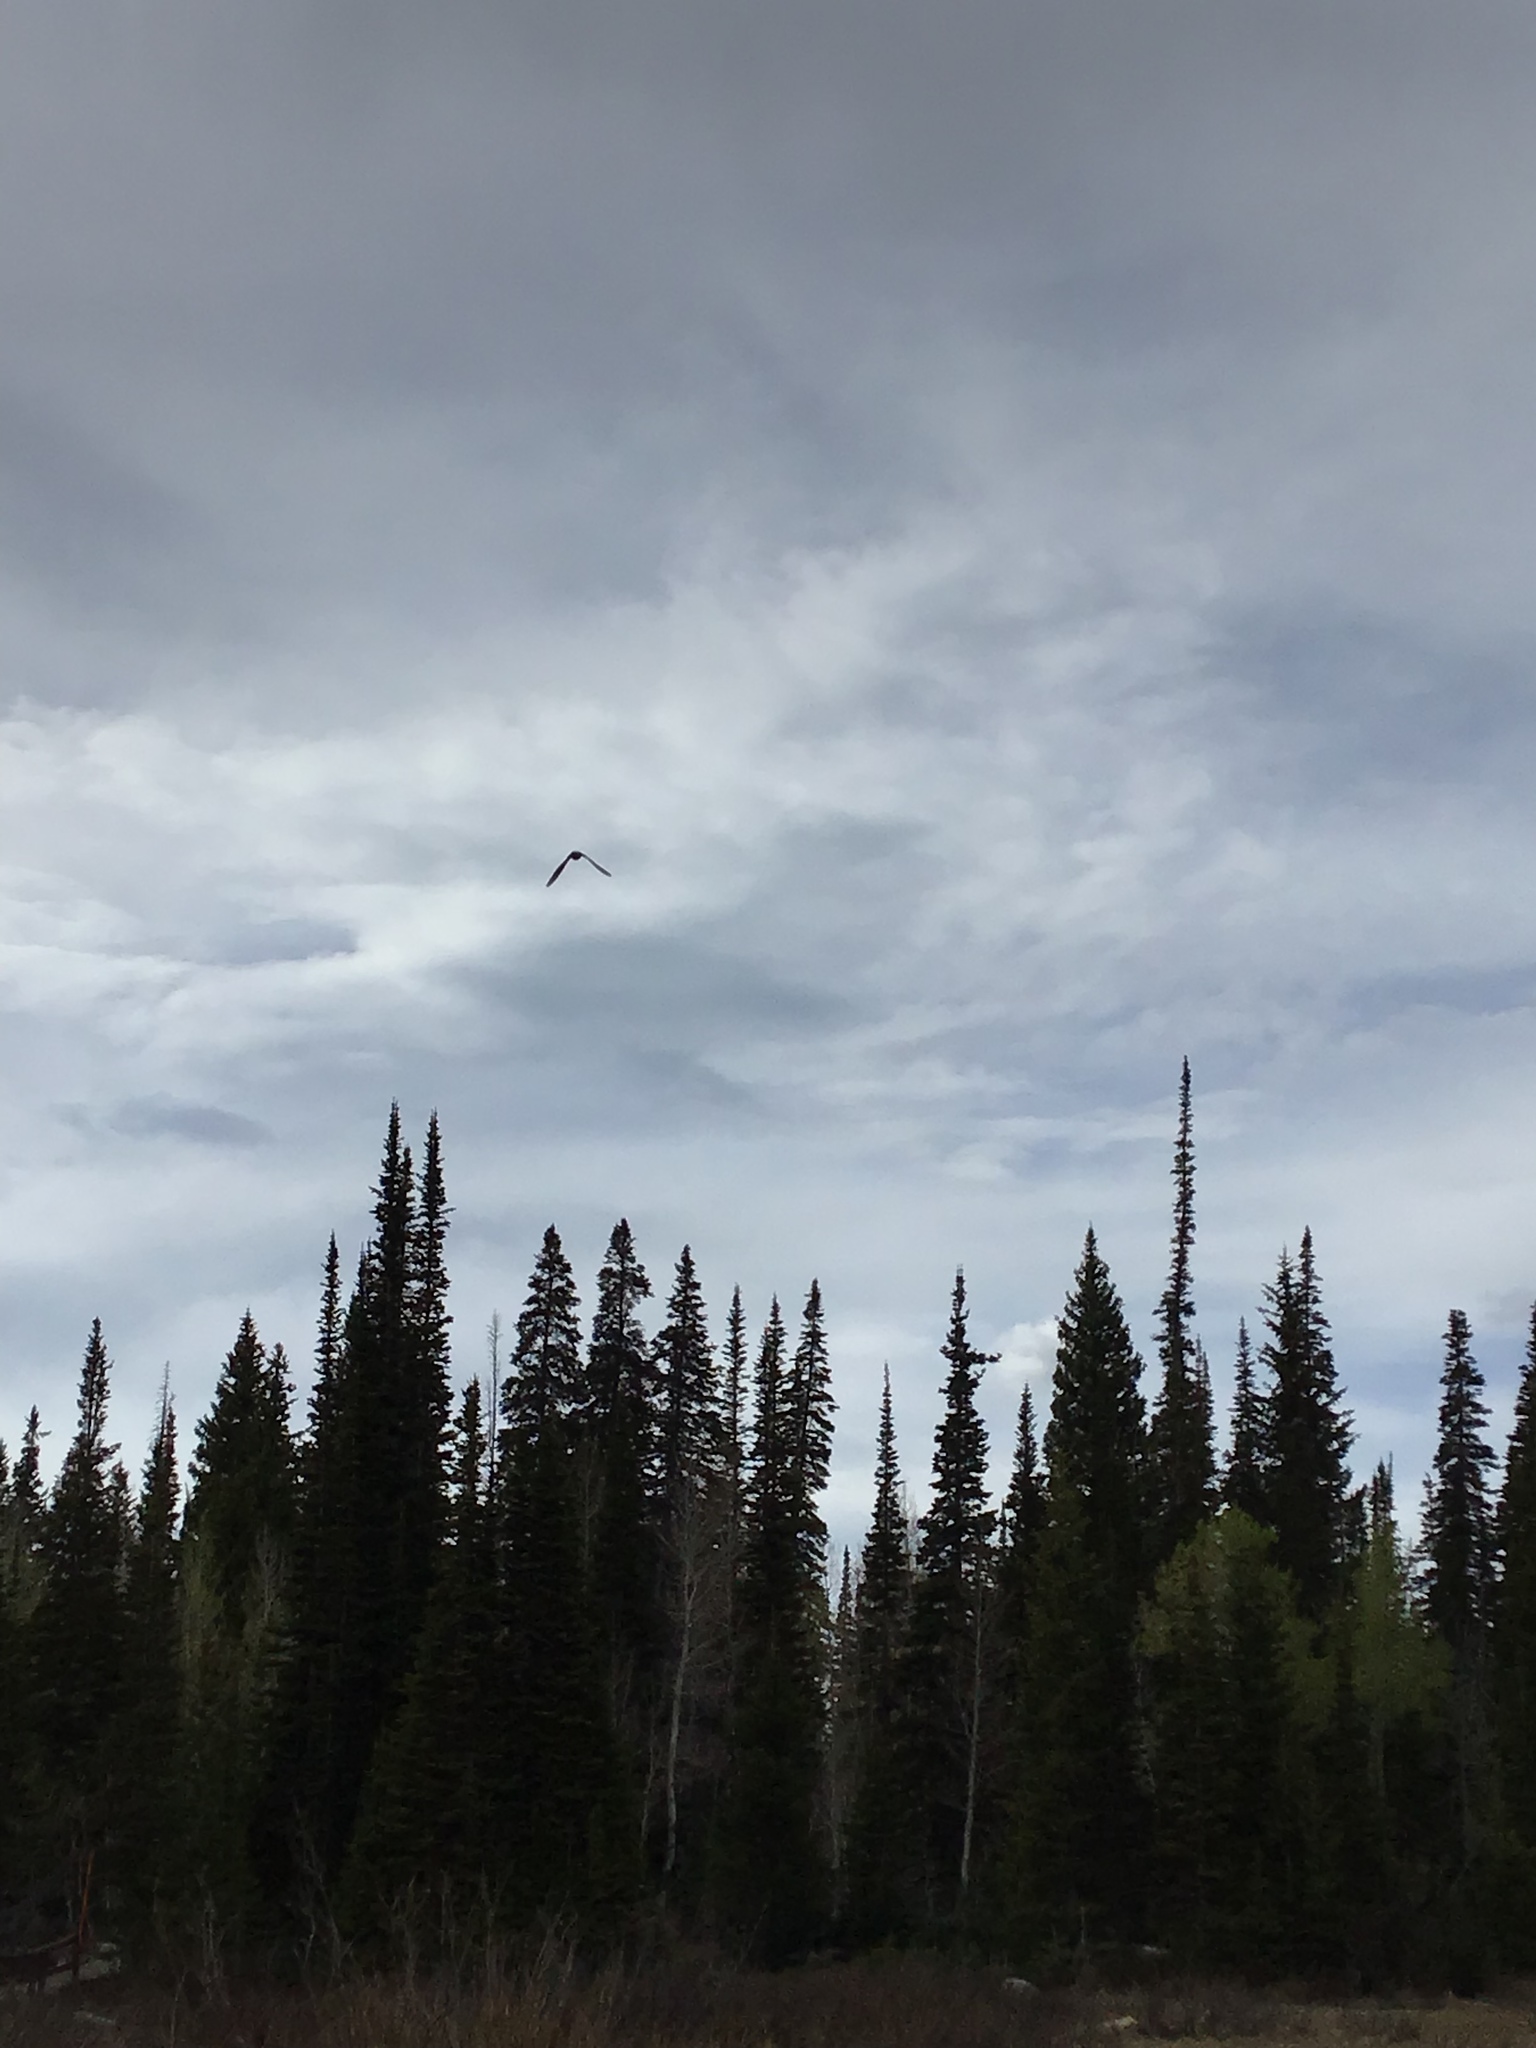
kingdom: Animalia
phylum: Chordata
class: Aves
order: Passeriformes
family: Hirundinidae
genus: Tachycineta
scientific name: Tachycineta bicolor
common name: Tree swallow
